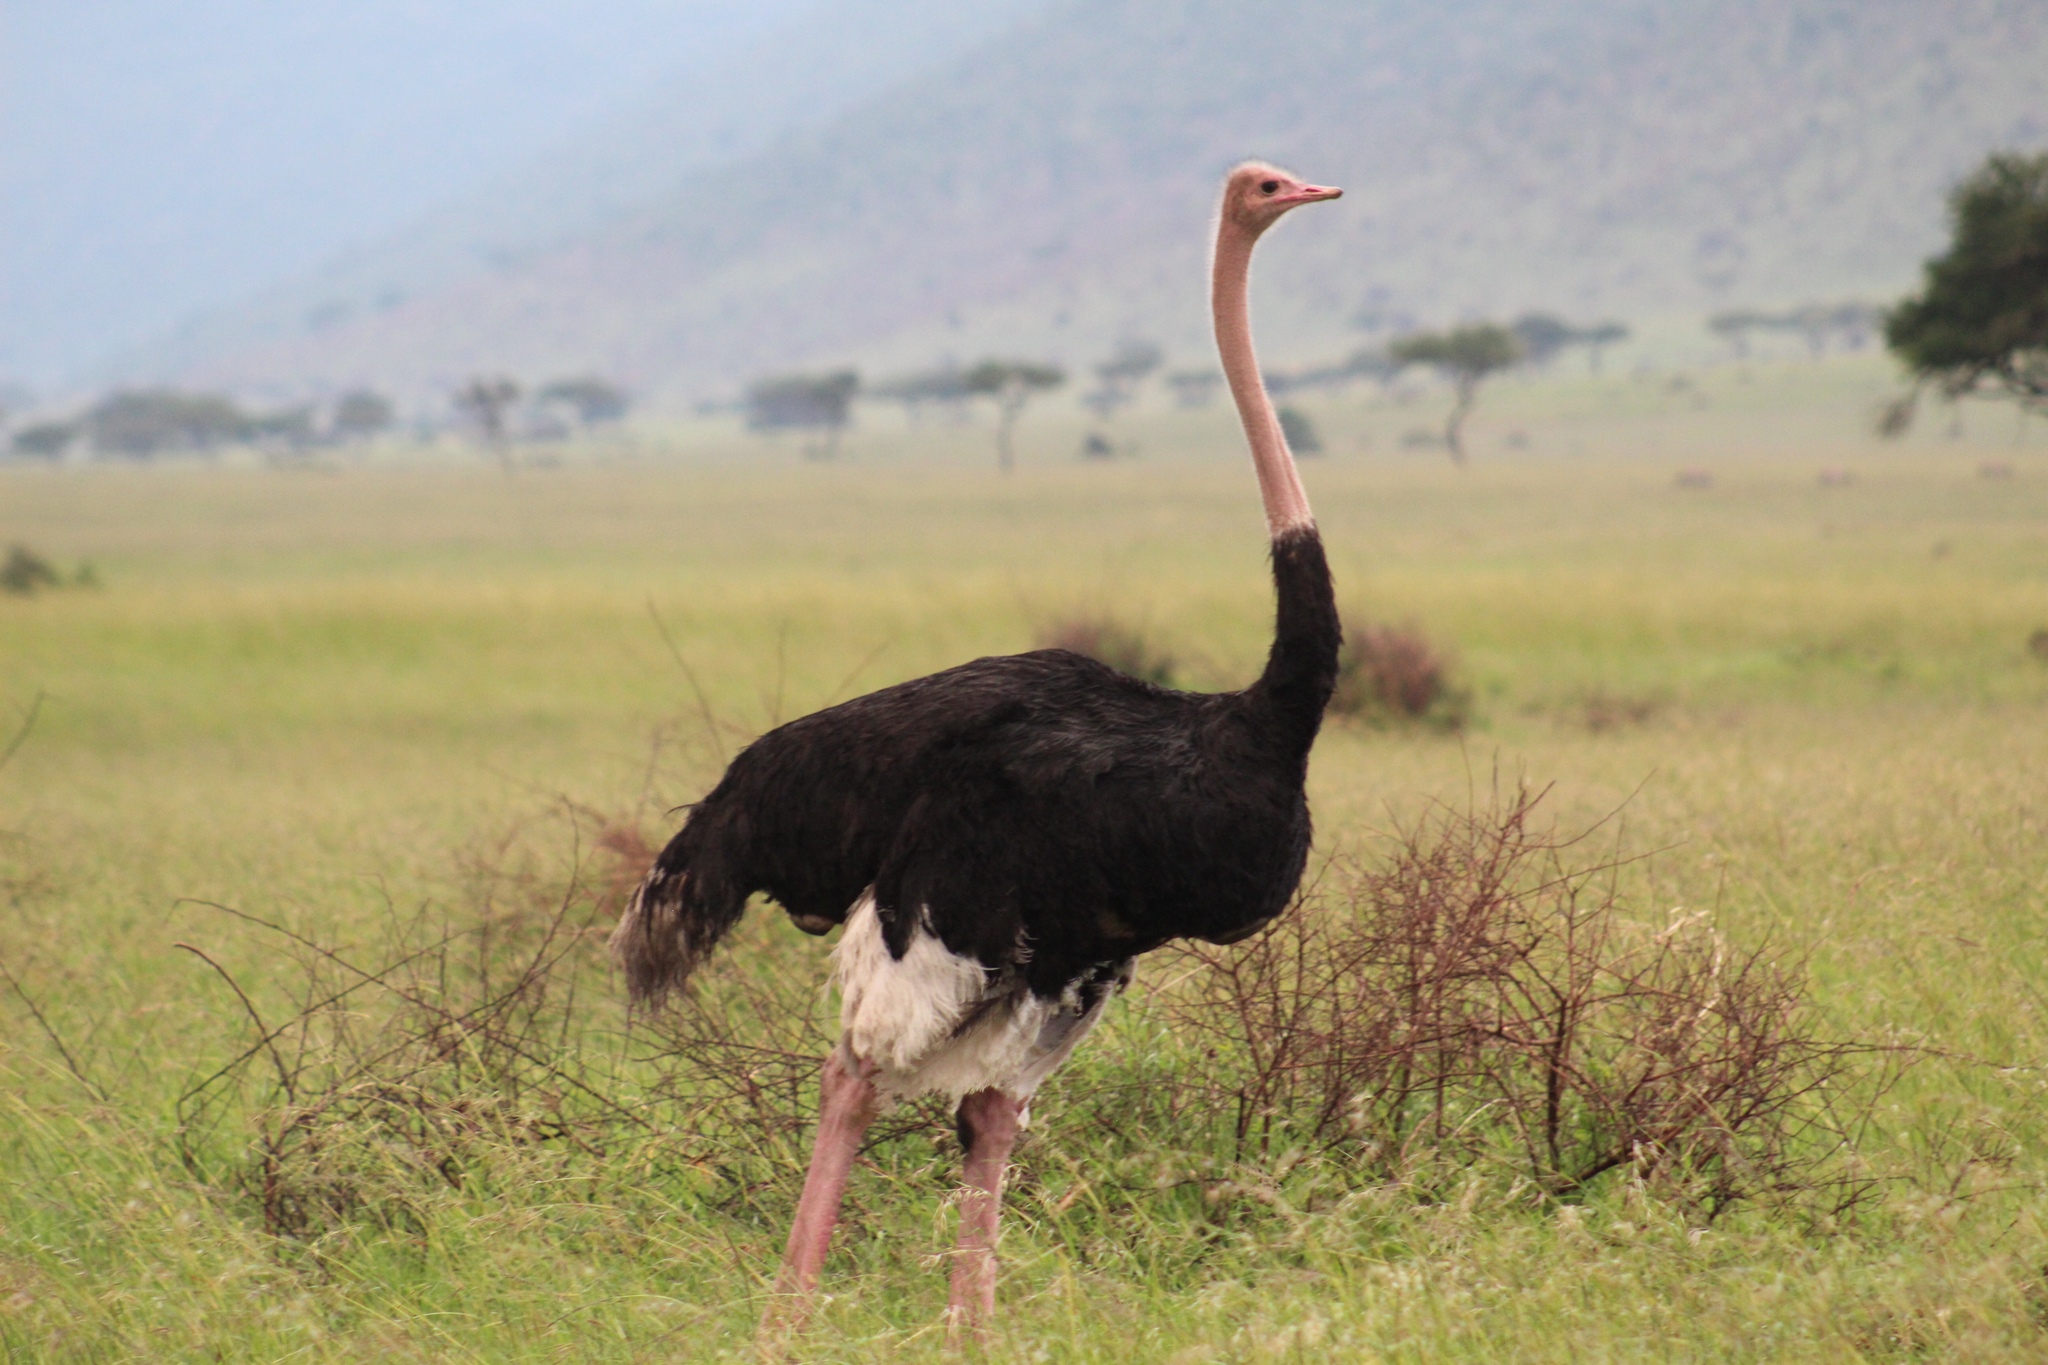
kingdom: Animalia
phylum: Chordata
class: Aves
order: Struthioniformes
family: Struthionidae
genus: Struthio
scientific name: Struthio camelus
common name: Common ostrich
